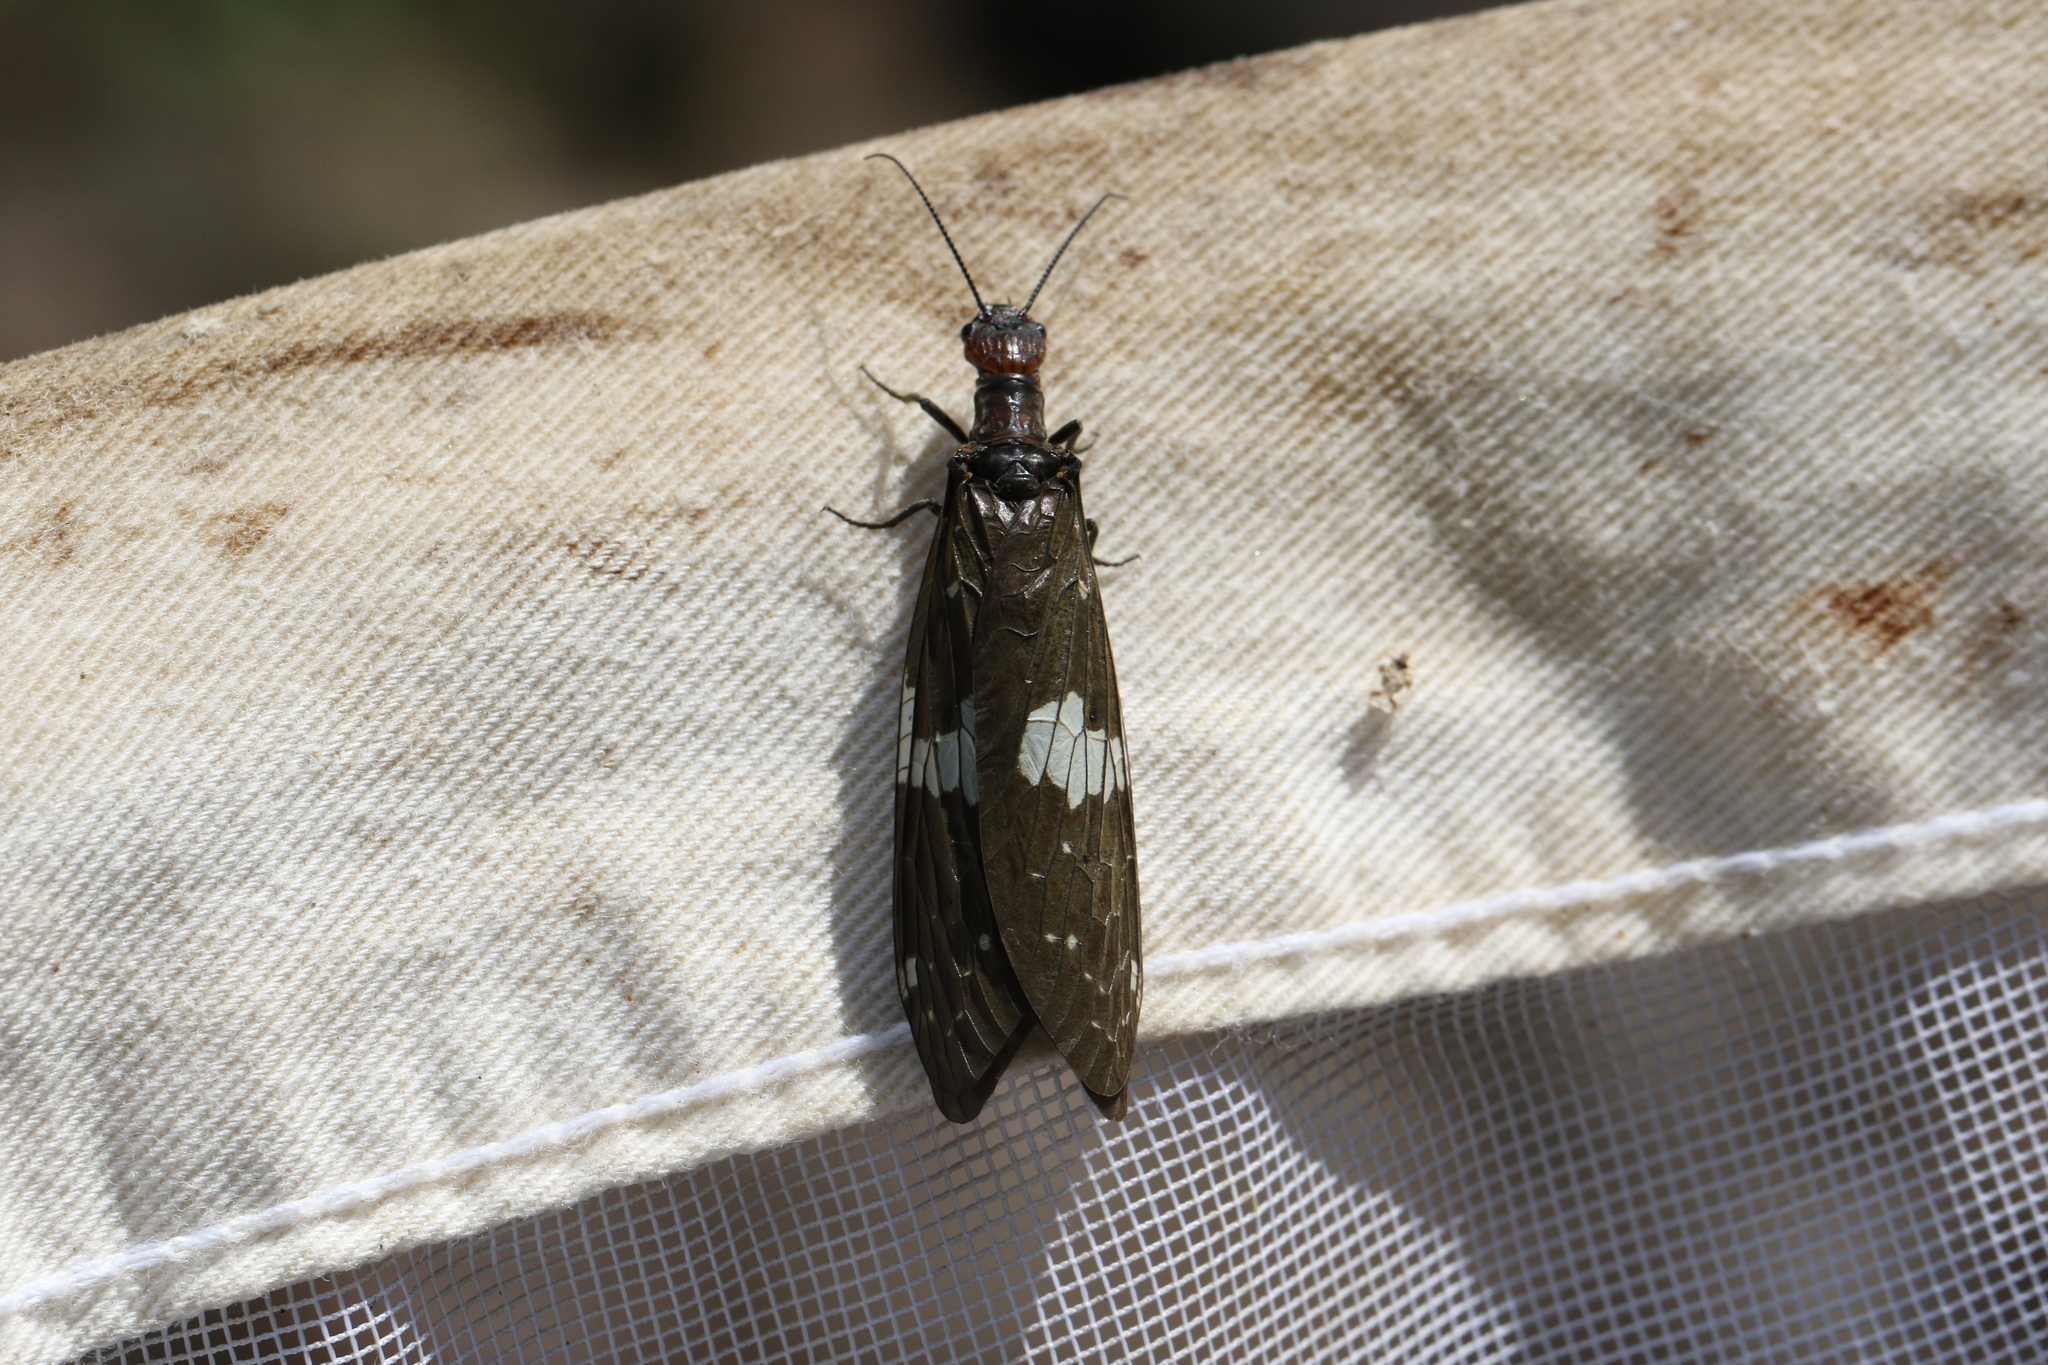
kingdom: Animalia
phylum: Arthropoda
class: Insecta
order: Megaloptera
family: Corydalidae
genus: Nigronia
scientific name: Nigronia serricornis
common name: Serrate dark fishfly
